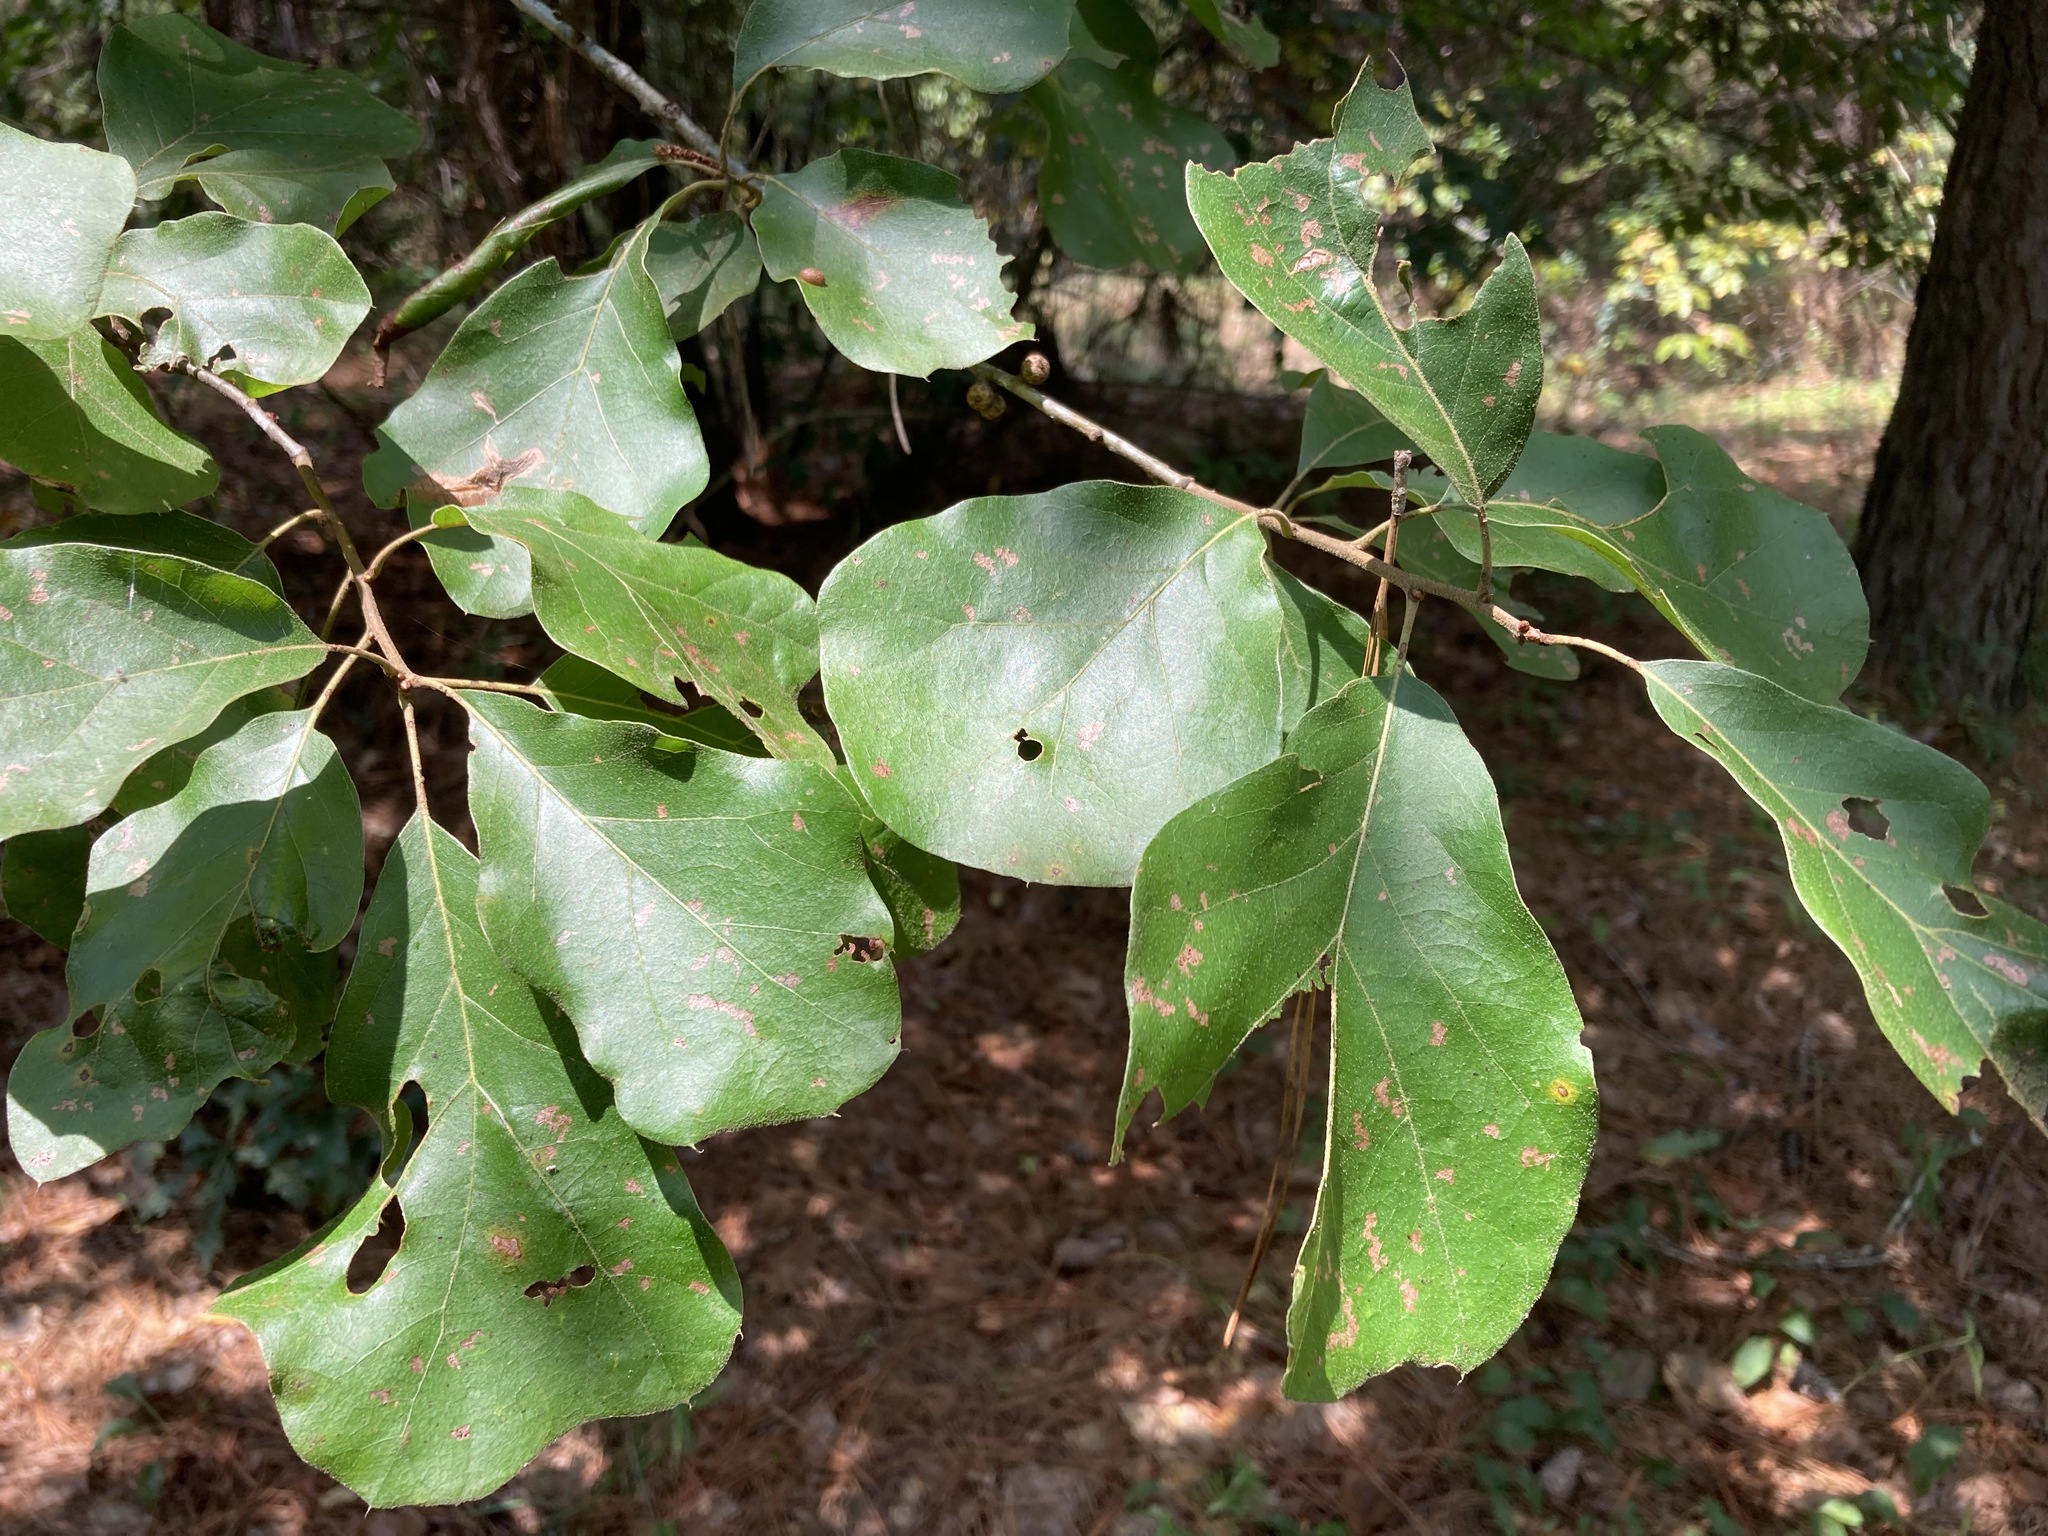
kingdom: Plantae
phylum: Tracheophyta
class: Magnoliopsida
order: Fagales
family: Fagaceae
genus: Quercus
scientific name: Quercus arkansana
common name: Arkansas oak
